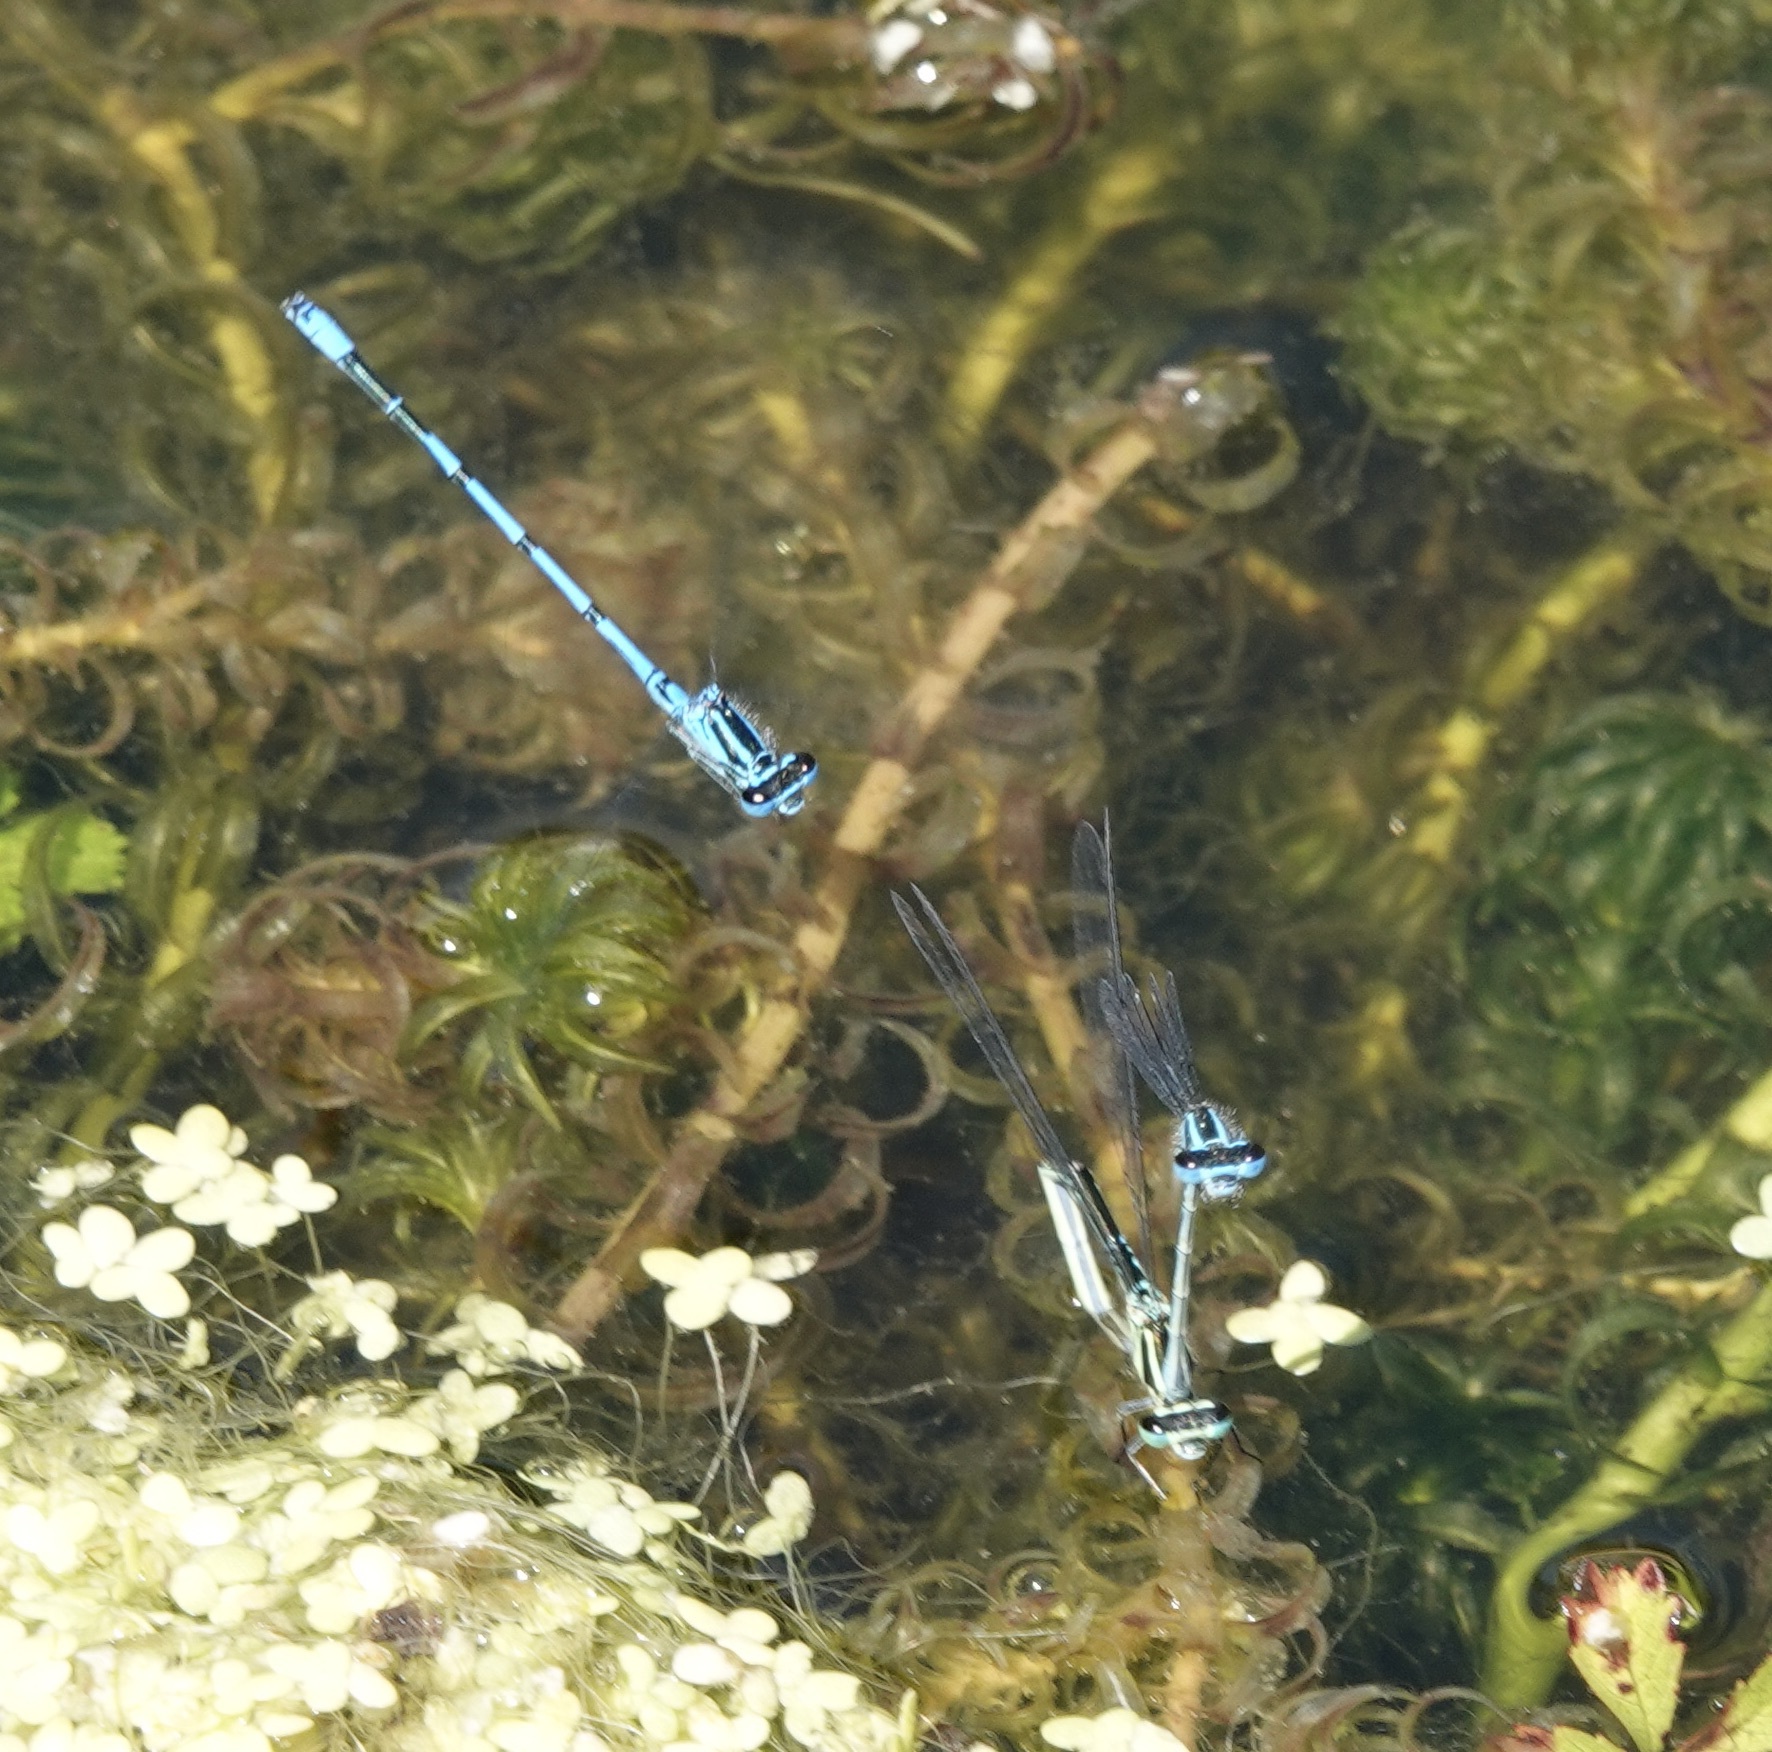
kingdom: Animalia
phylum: Arthropoda
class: Insecta
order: Odonata
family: Coenagrionidae
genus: Coenagrion
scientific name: Coenagrion puella
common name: Azure damselfly
